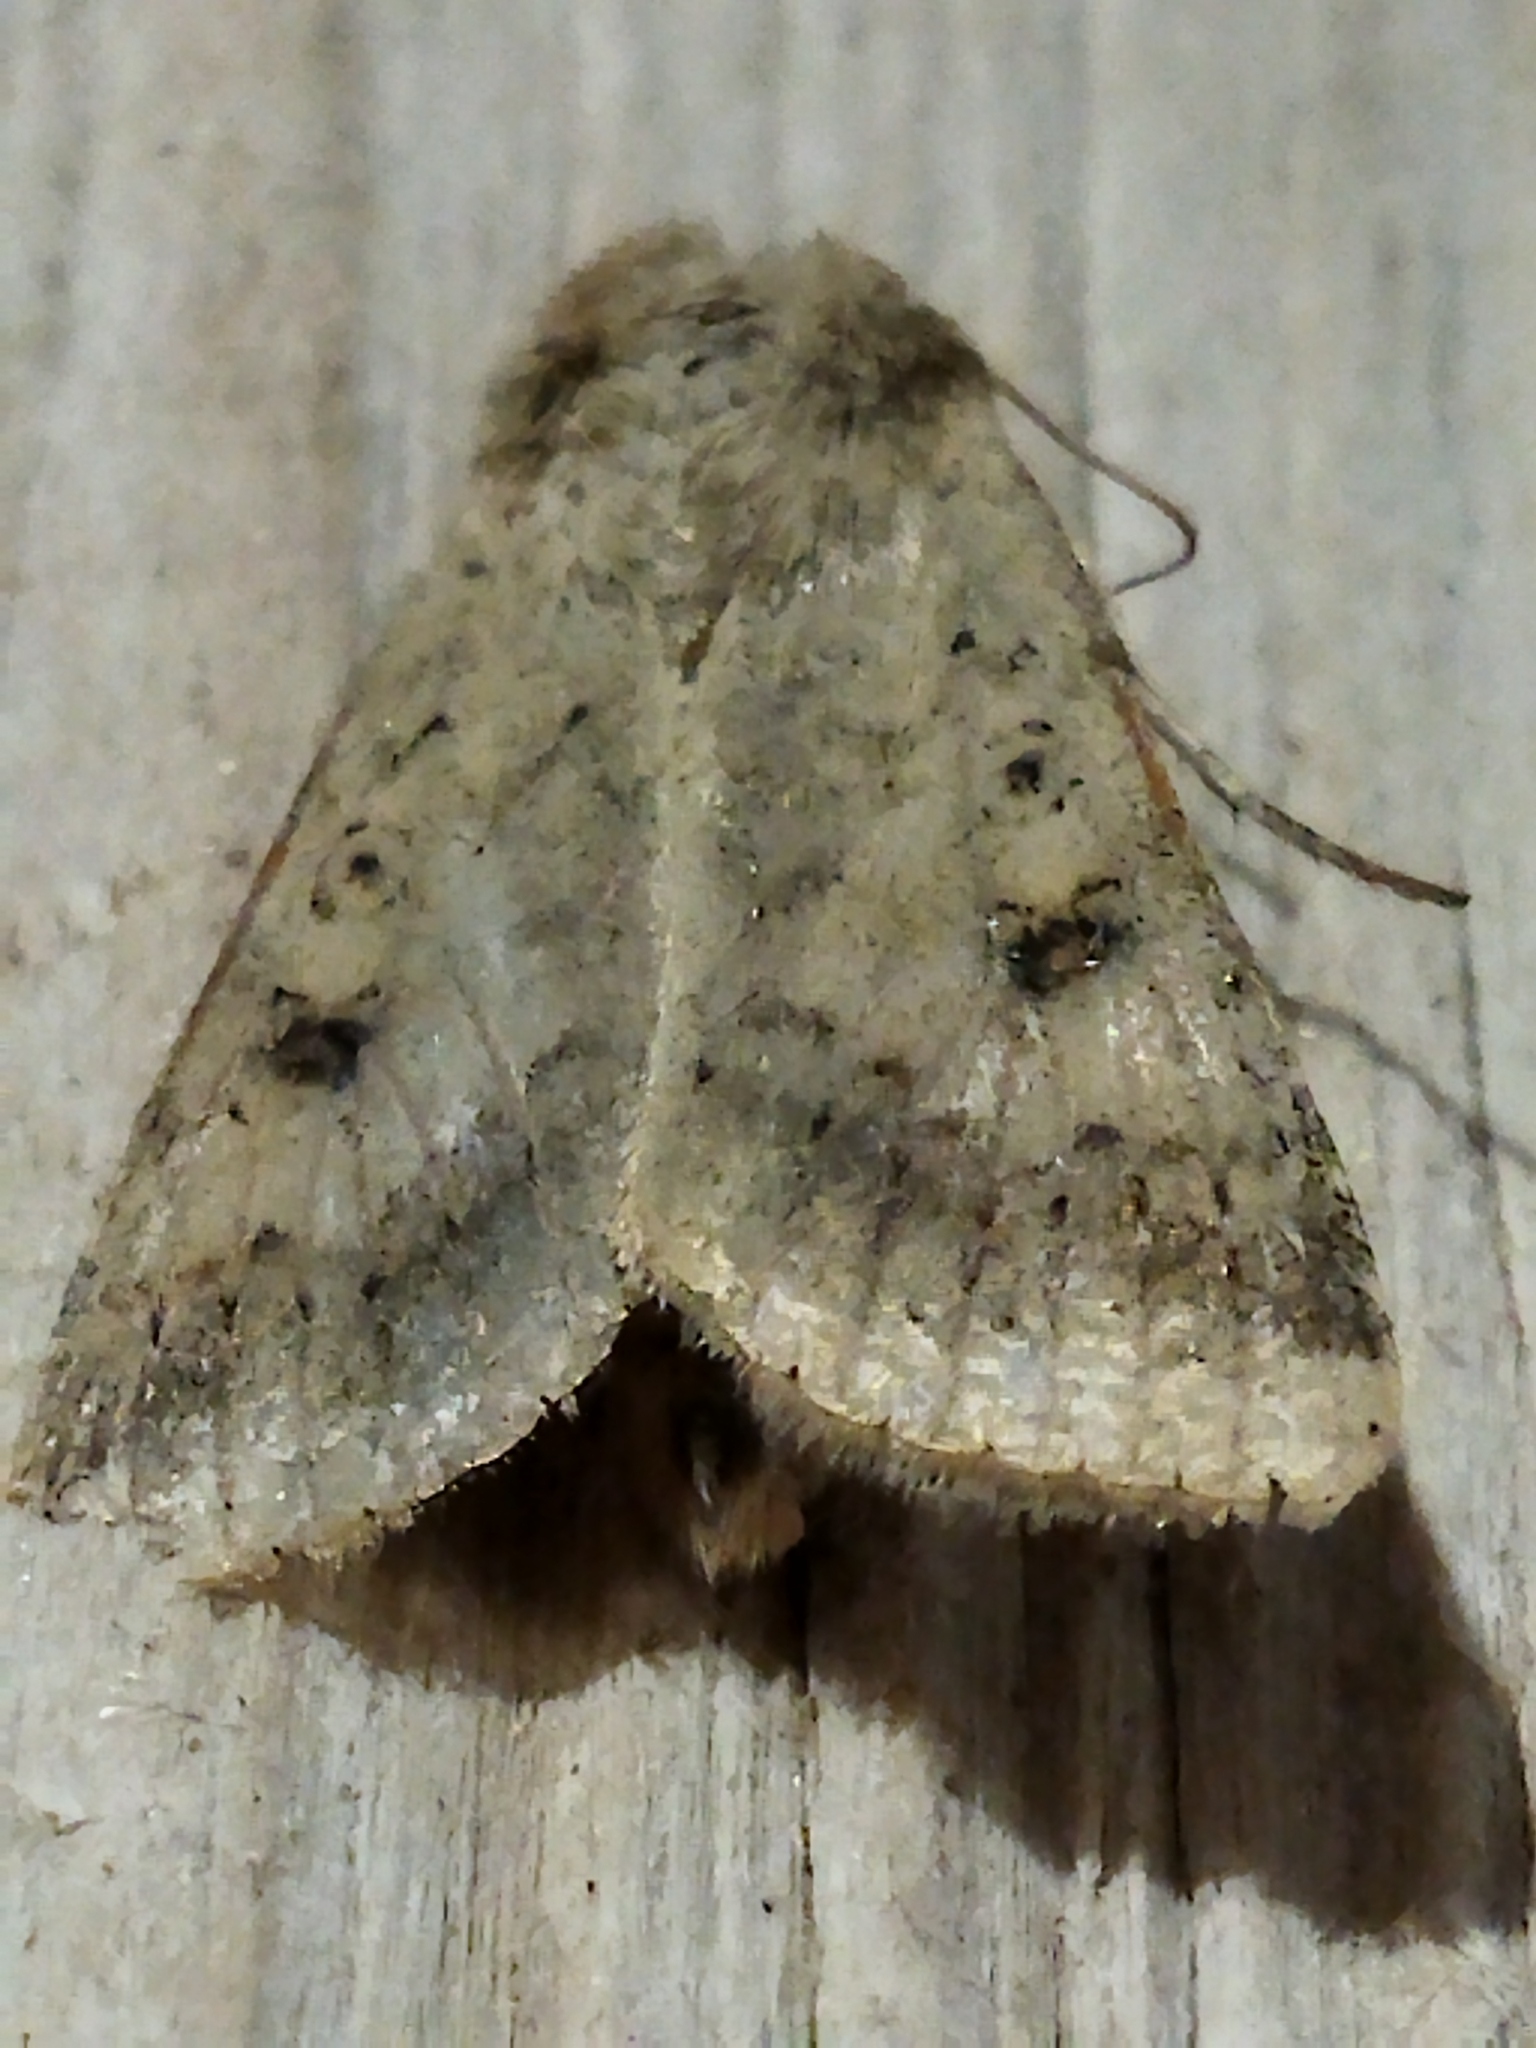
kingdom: Animalia
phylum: Arthropoda
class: Insecta
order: Lepidoptera
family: Noctuidae
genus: Helicoverpa
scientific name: Helicoverpa armigera
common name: Cotton bollworm
